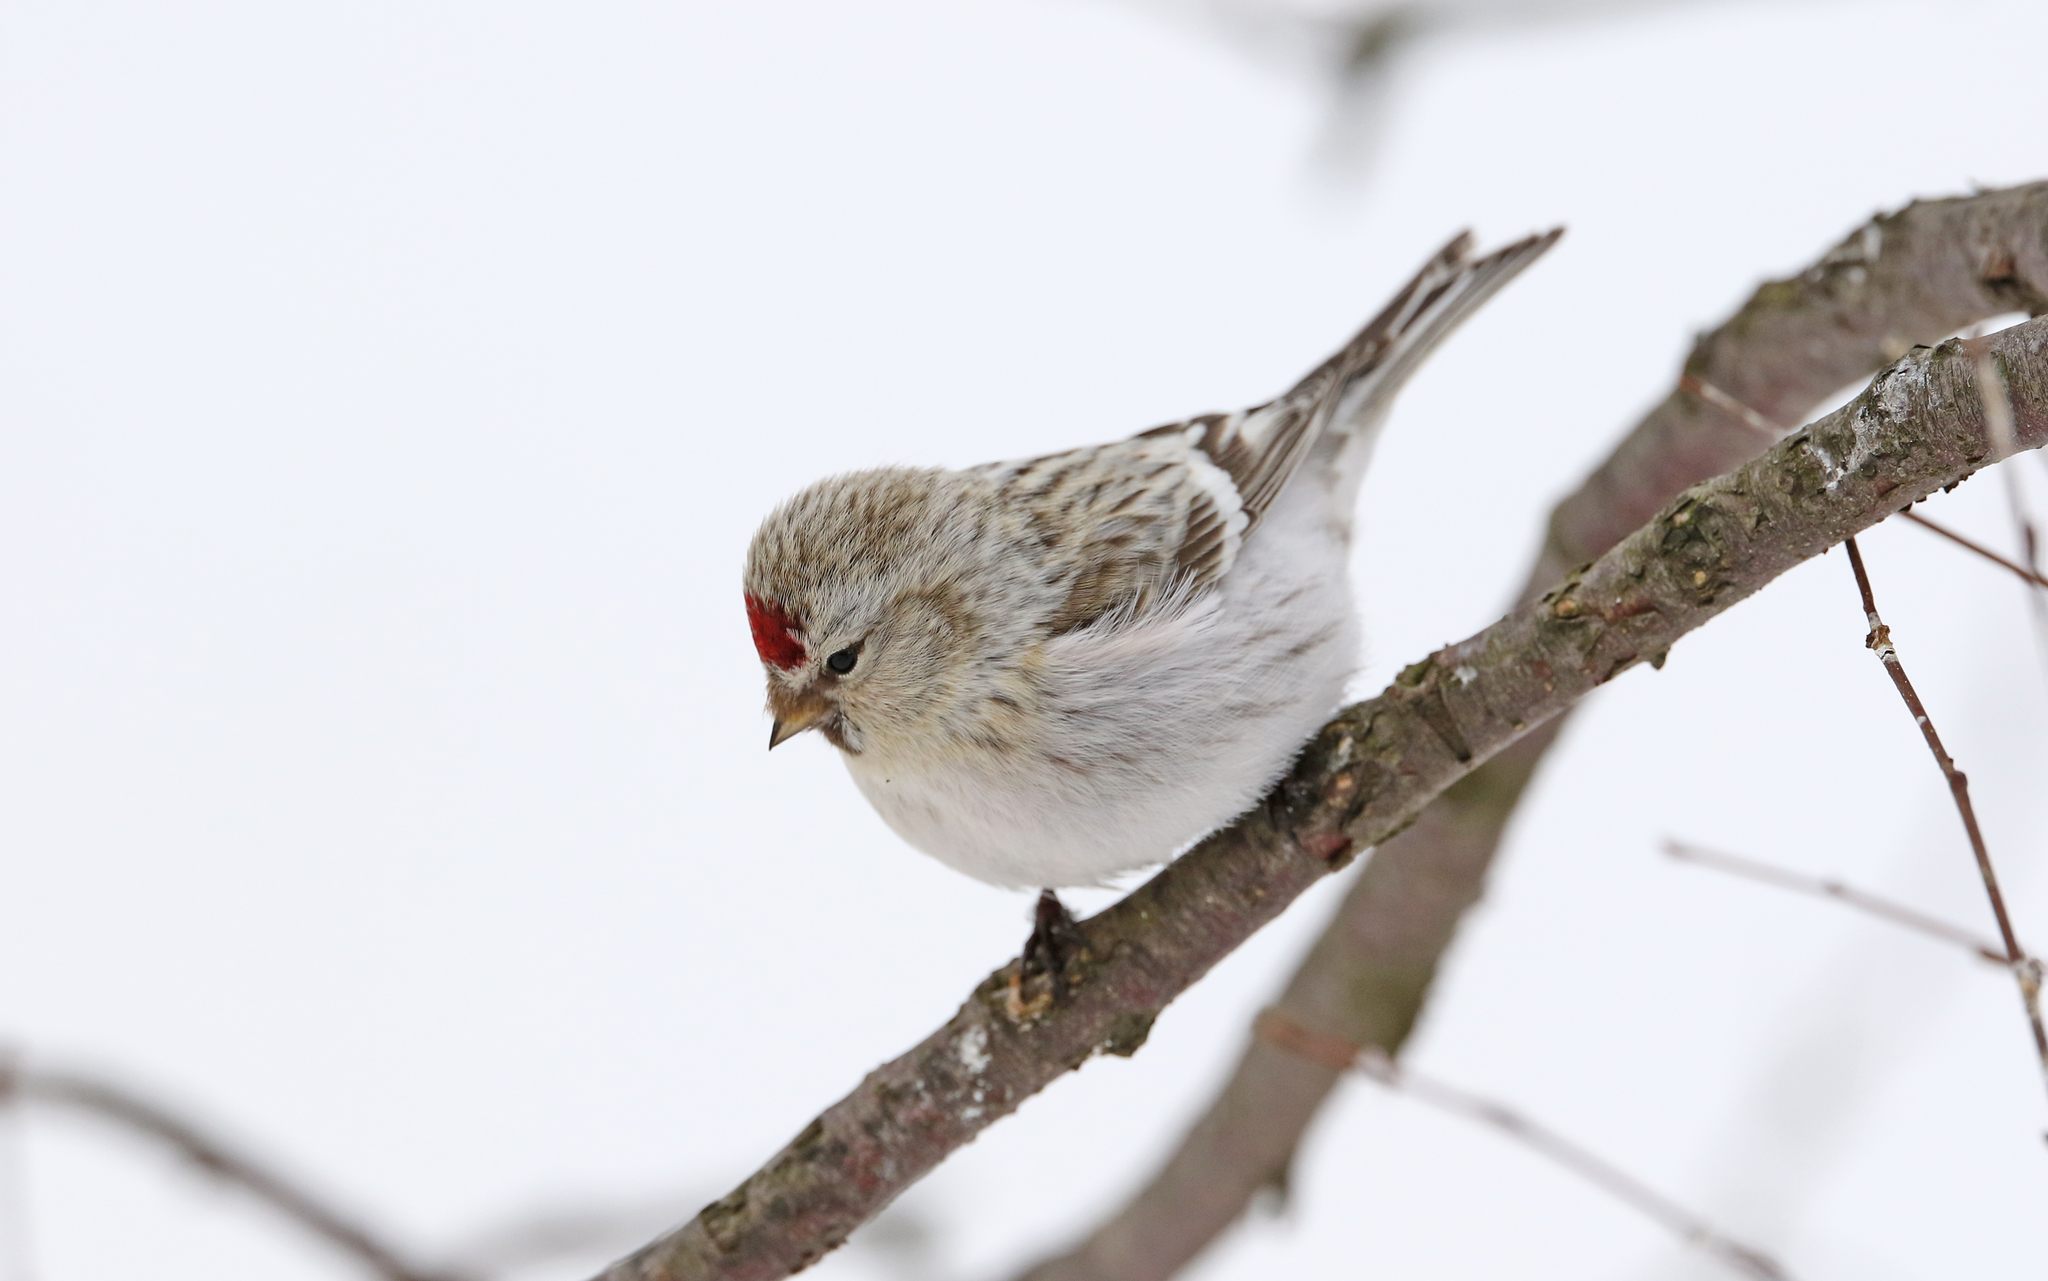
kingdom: Animalia
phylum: Chordata
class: Aves
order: Passeriformes
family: Fringillidae
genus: Acanthis
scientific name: Acanthis hornemanni
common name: Arctic redpoll
